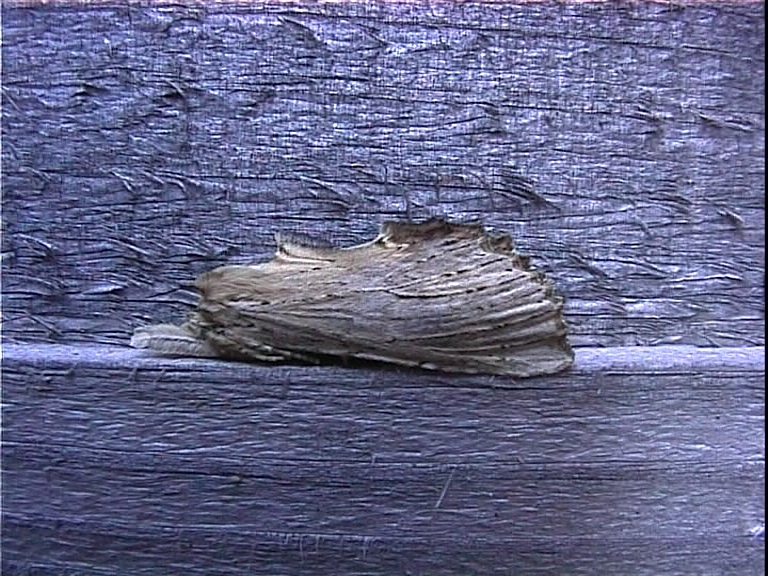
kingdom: Animalia
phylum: Arthropoda
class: Insecta
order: Lepidoptera
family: Notodontidae
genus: Pterostoma
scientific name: Pterostoma palpina
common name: Pale prominent
